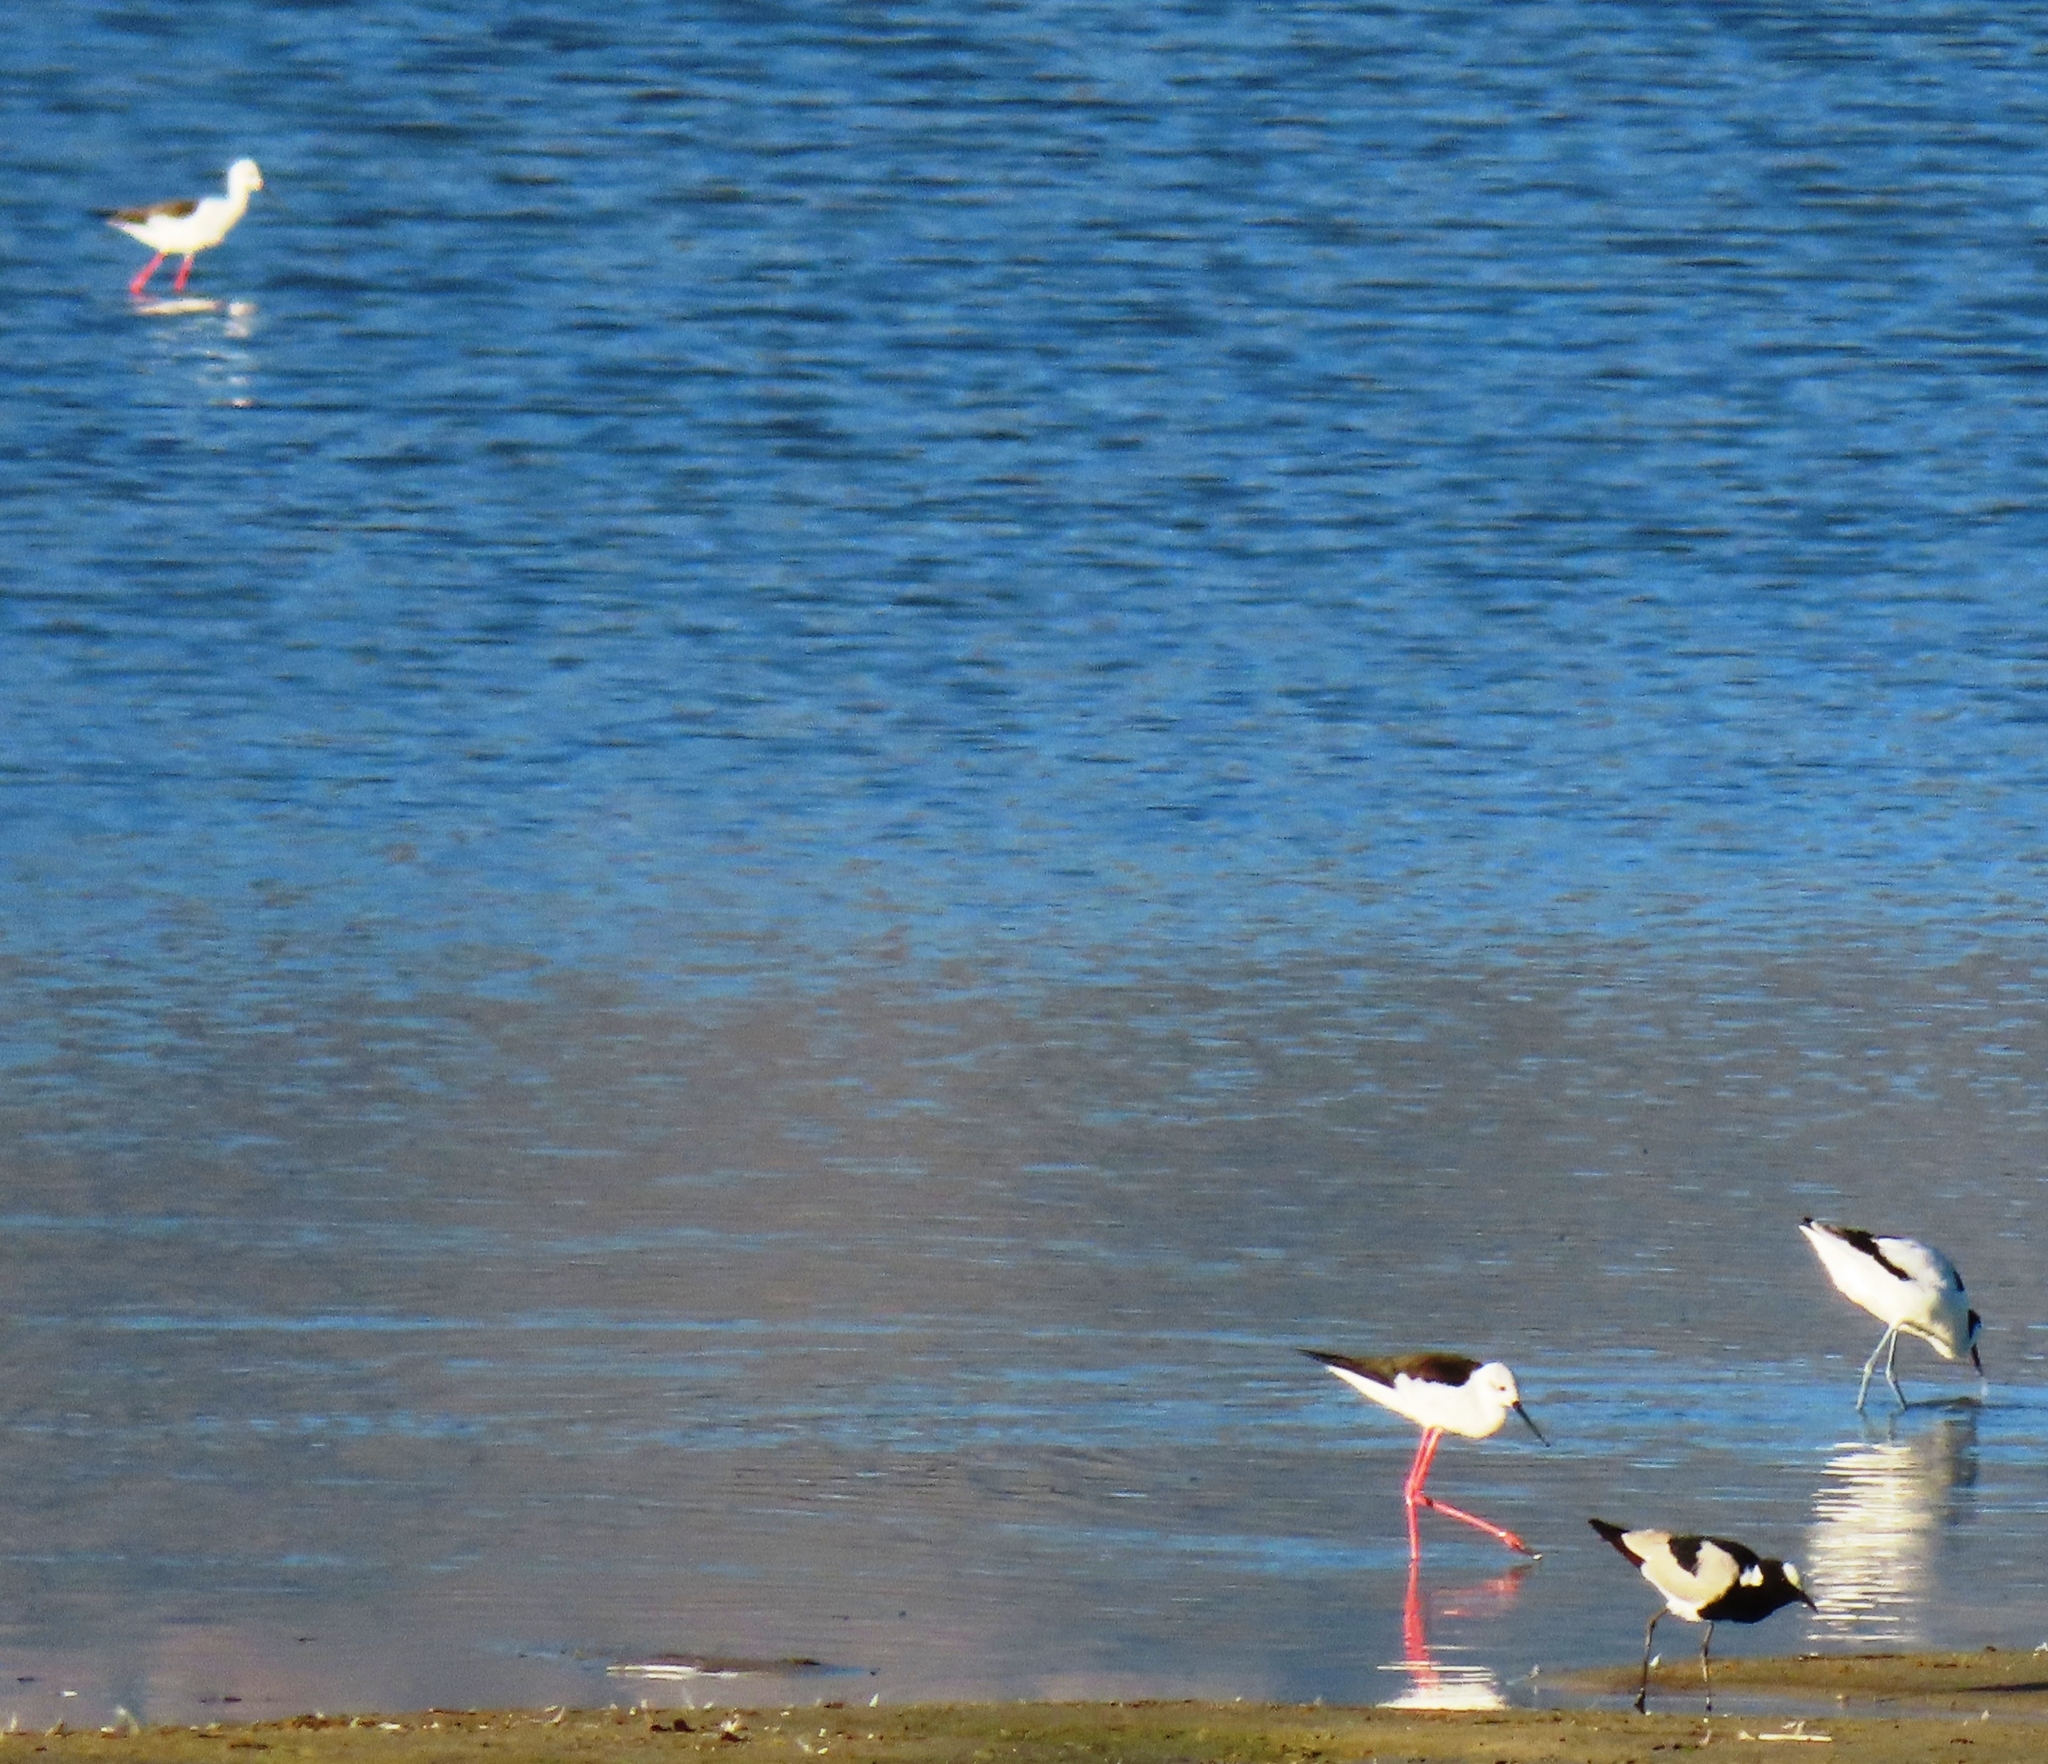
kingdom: Animalia
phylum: Chordata
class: Aves
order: Charadriiformes
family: Recurvirostridae
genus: Himantopus
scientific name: Himantopus himantopus
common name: Black-winged stilt
